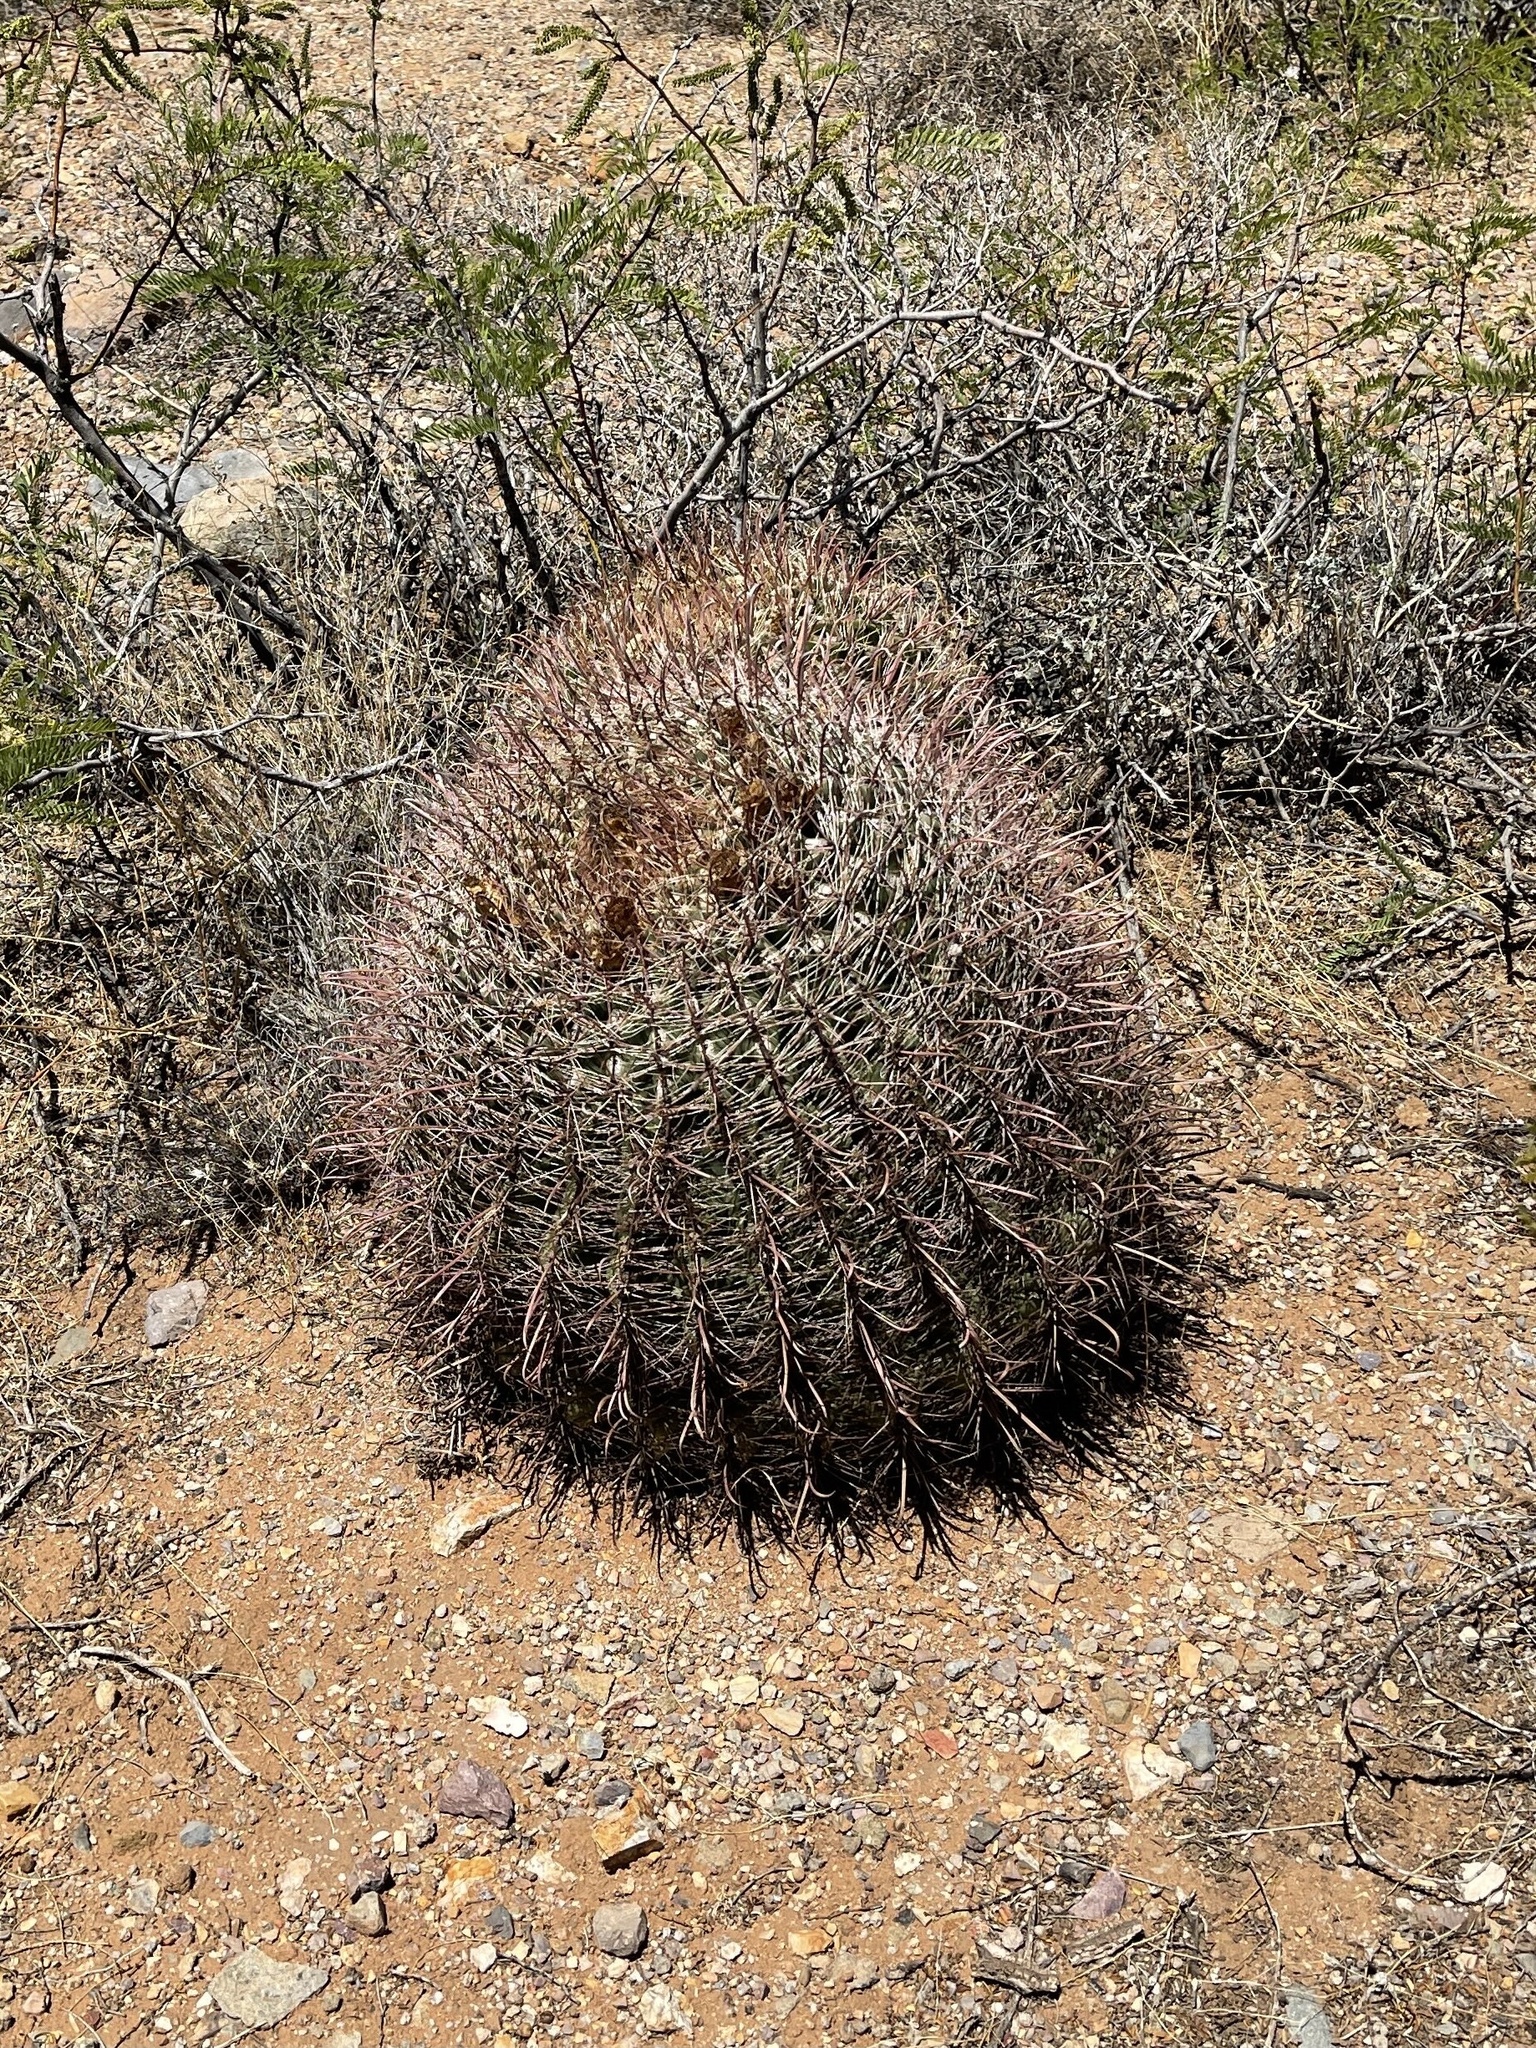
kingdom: Plantae
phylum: Tracheophyta
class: Magnoliopsida
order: Caryophyllales
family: Cactaceae
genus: Ferocactus
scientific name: Ferocactus wislizeni
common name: Candy barrel cactus
